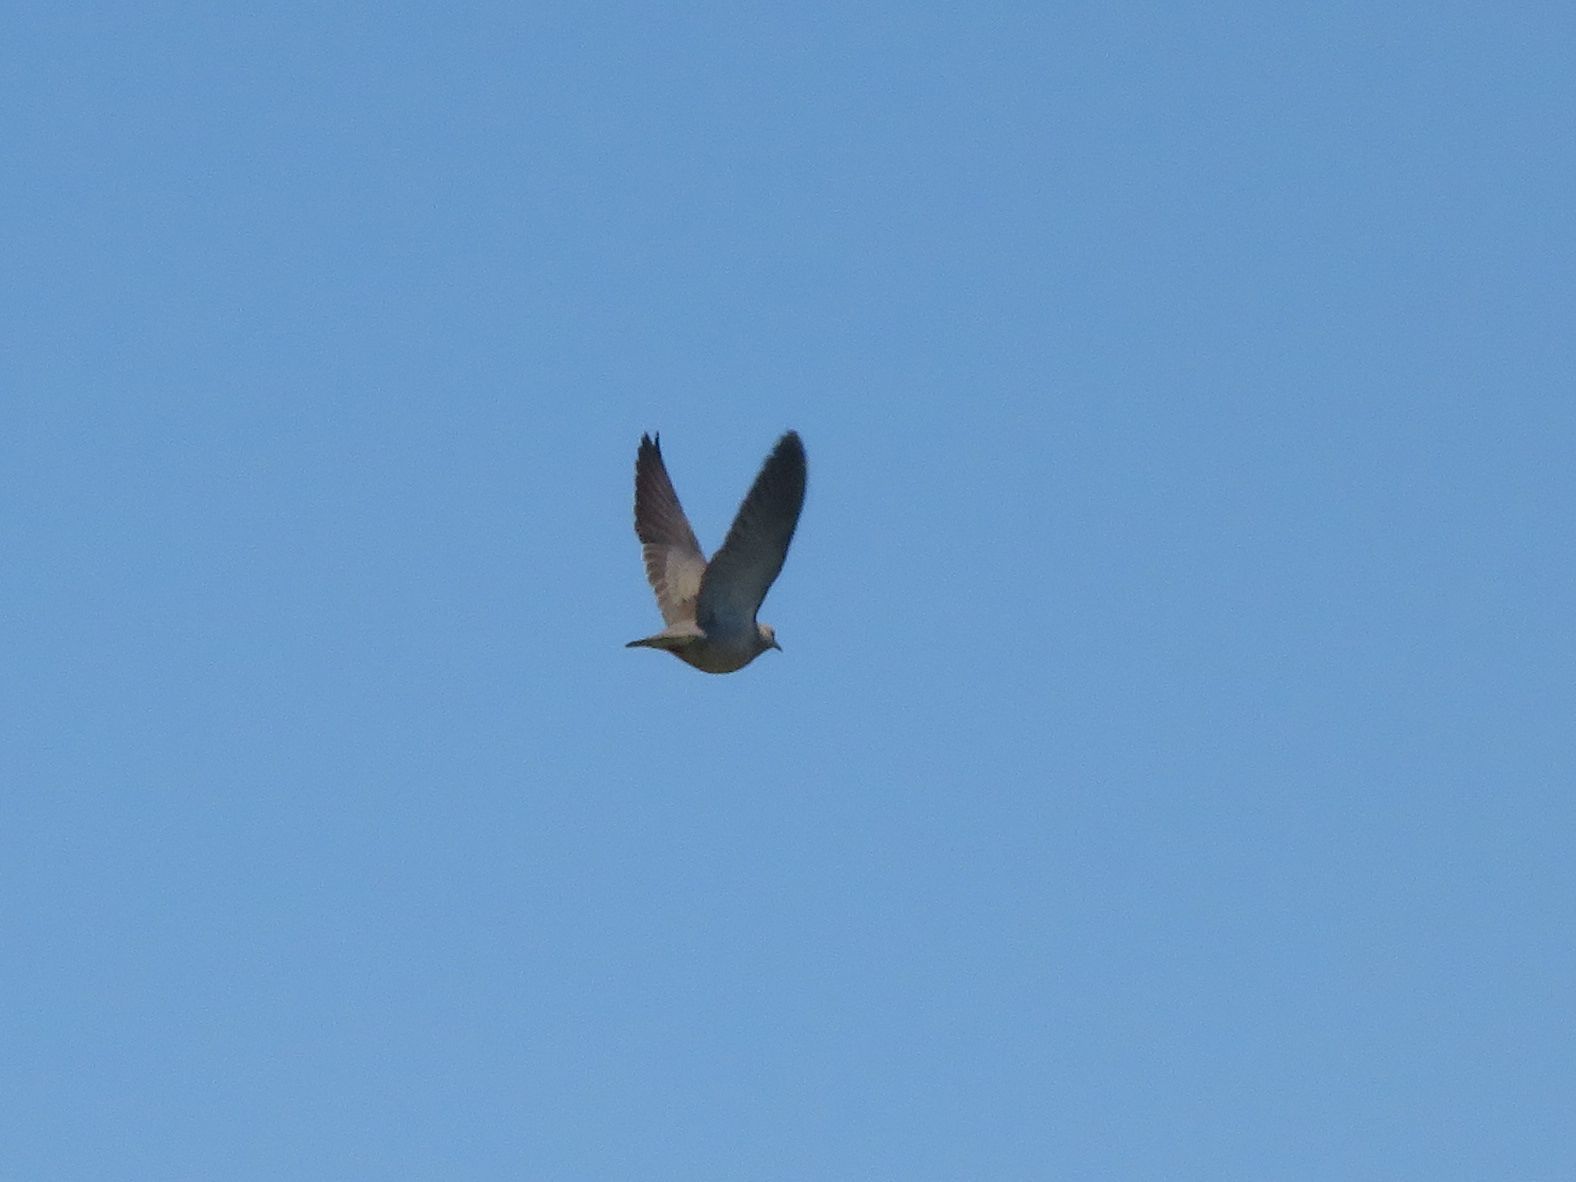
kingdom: Animalia
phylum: Chordata
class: Aves
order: Columbiformes
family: Columbidae
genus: Zenaida
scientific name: Zenaida auriculata
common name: Eared dove
